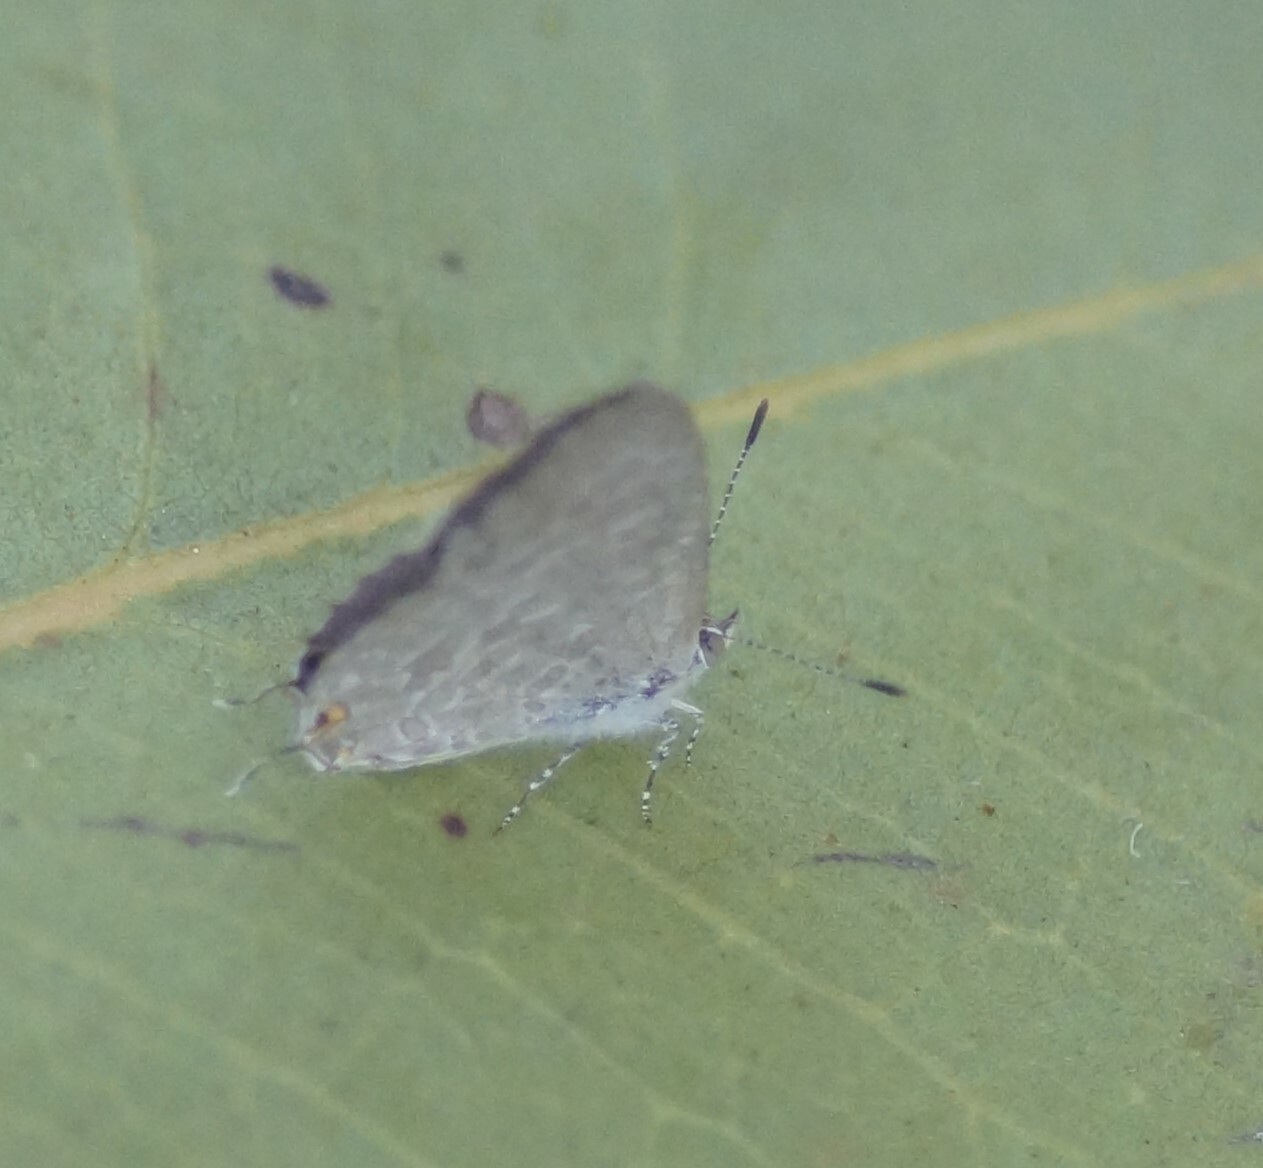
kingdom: Animalia
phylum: Arthropoda
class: Insecta
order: Lepidoptera
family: Lycaenidae
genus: Catopyrops
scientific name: Catopyrops florinda
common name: Speckled line-blue
